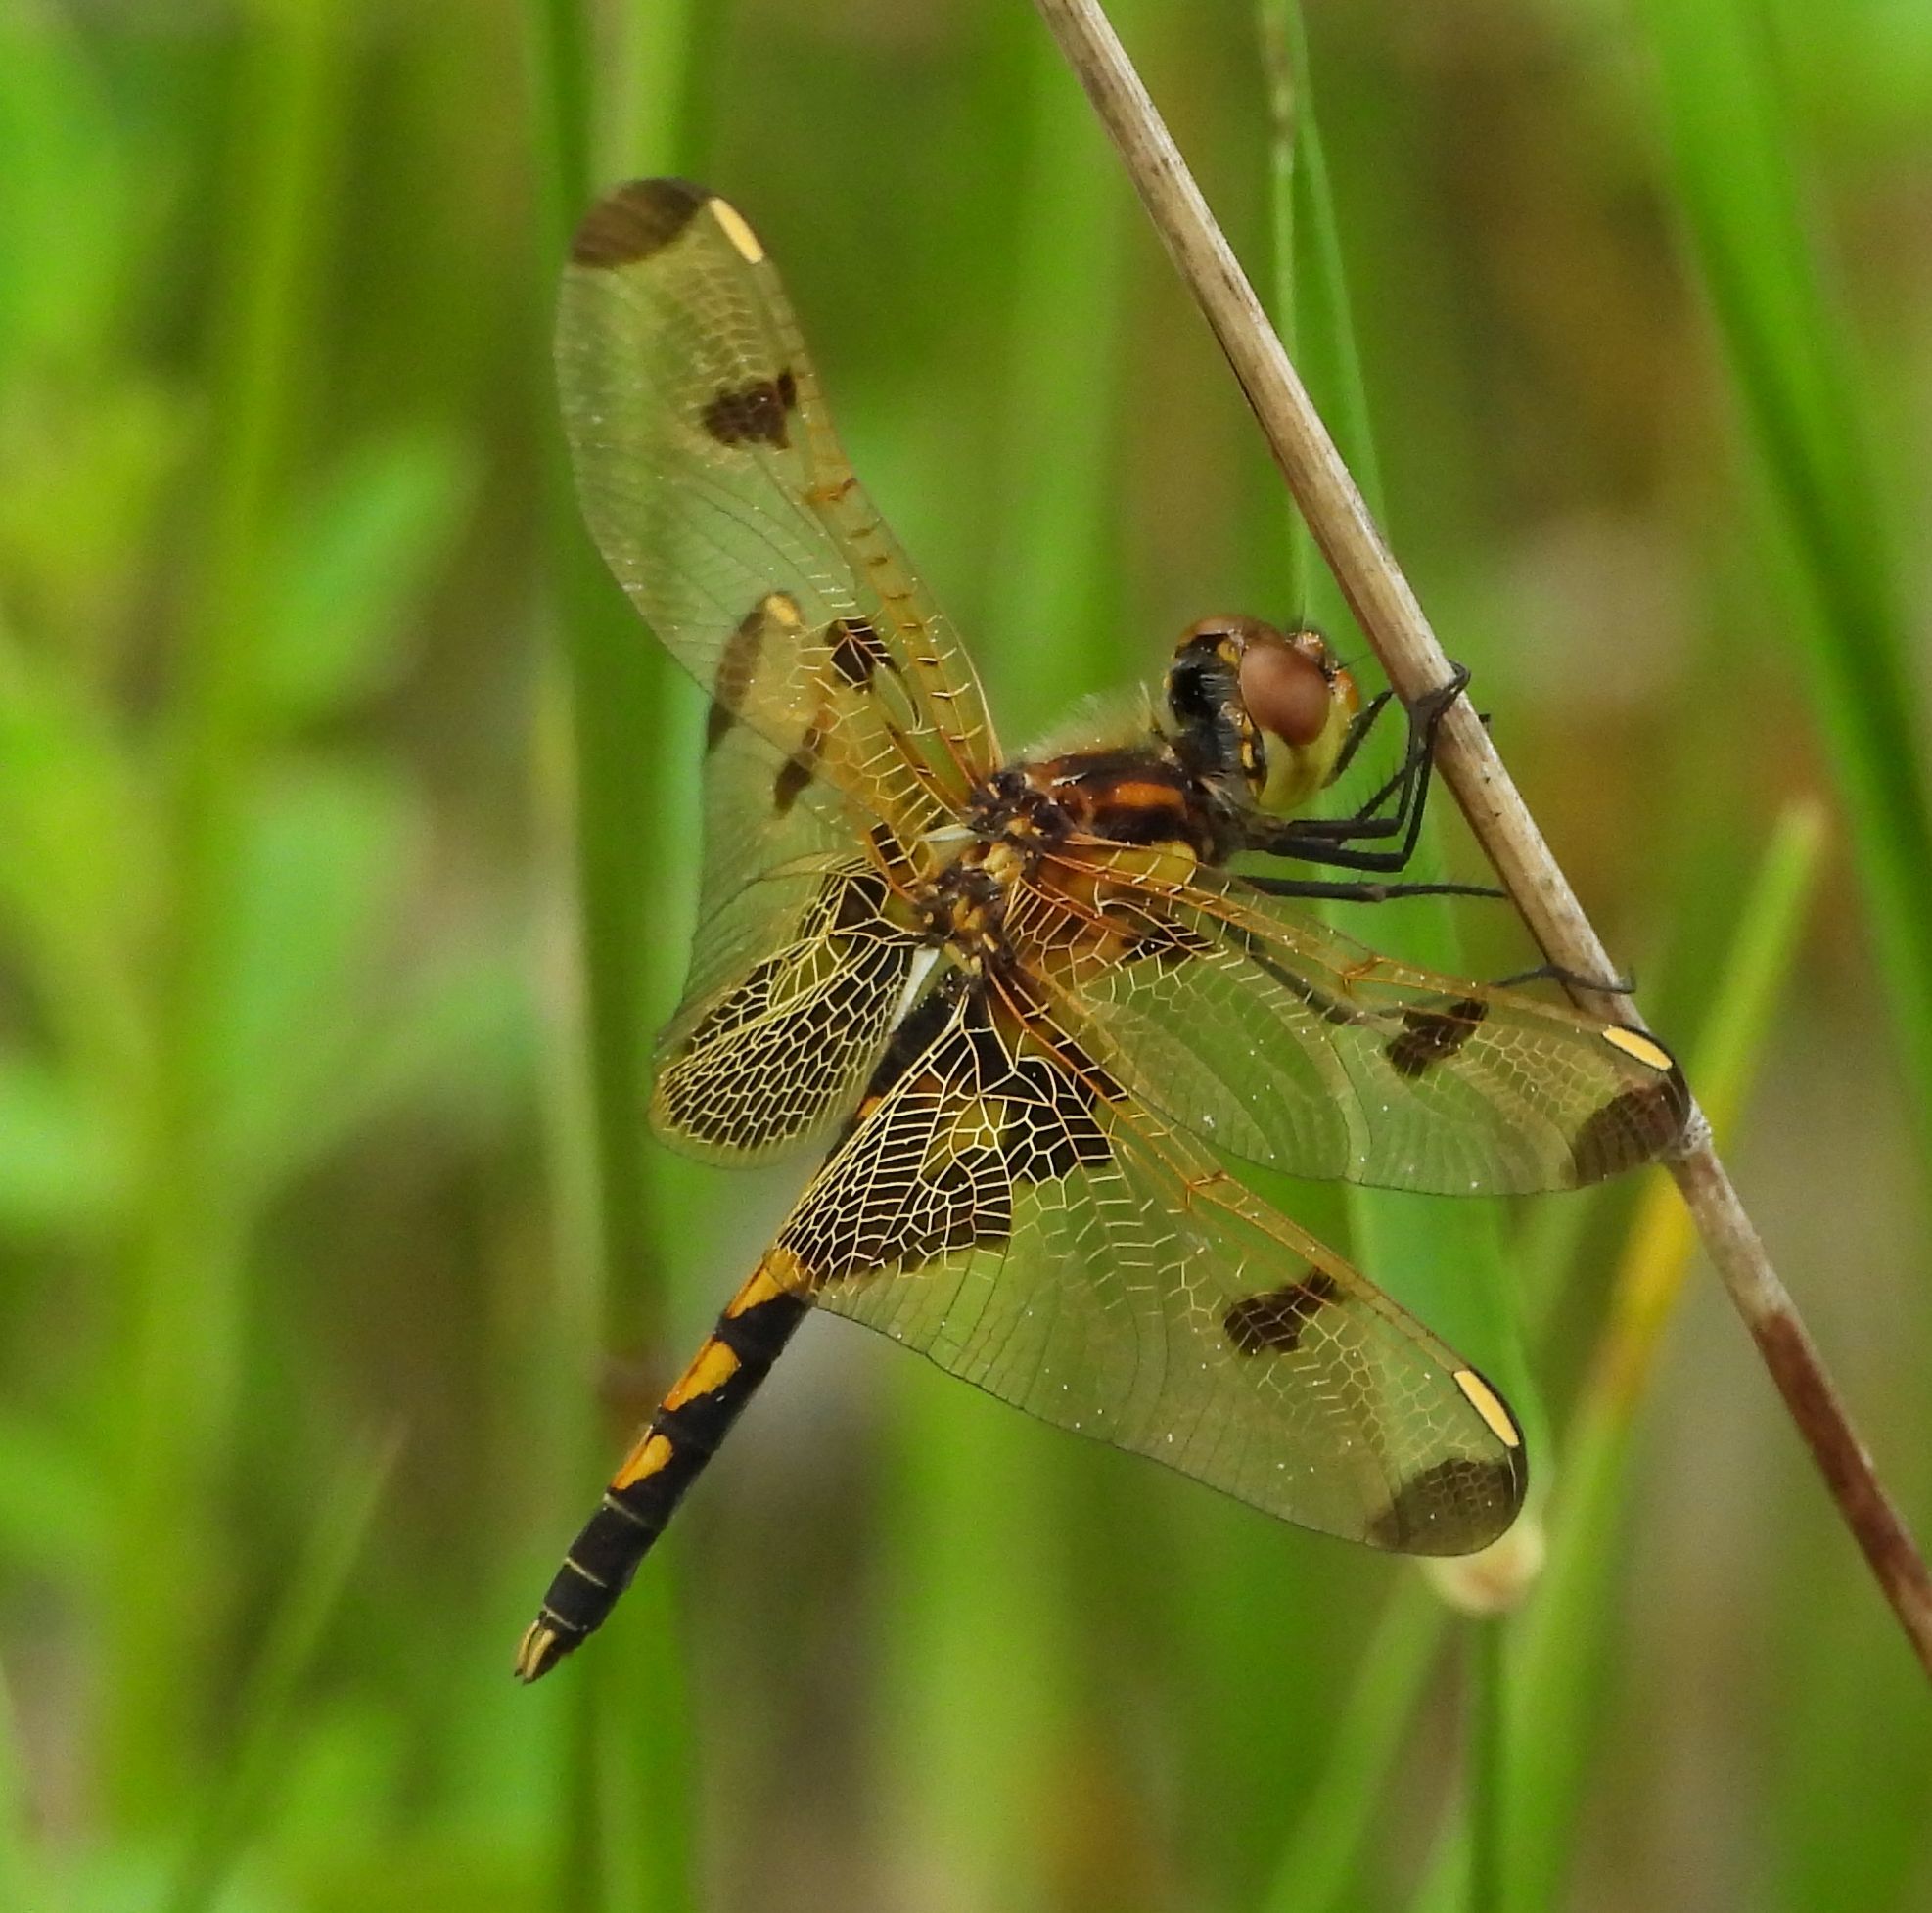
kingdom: Animalia
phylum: Arthropoda
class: Insecta
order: Odonata
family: Libellulidae
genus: Celithemis
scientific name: Celithemis elisa
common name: Calico pennant
